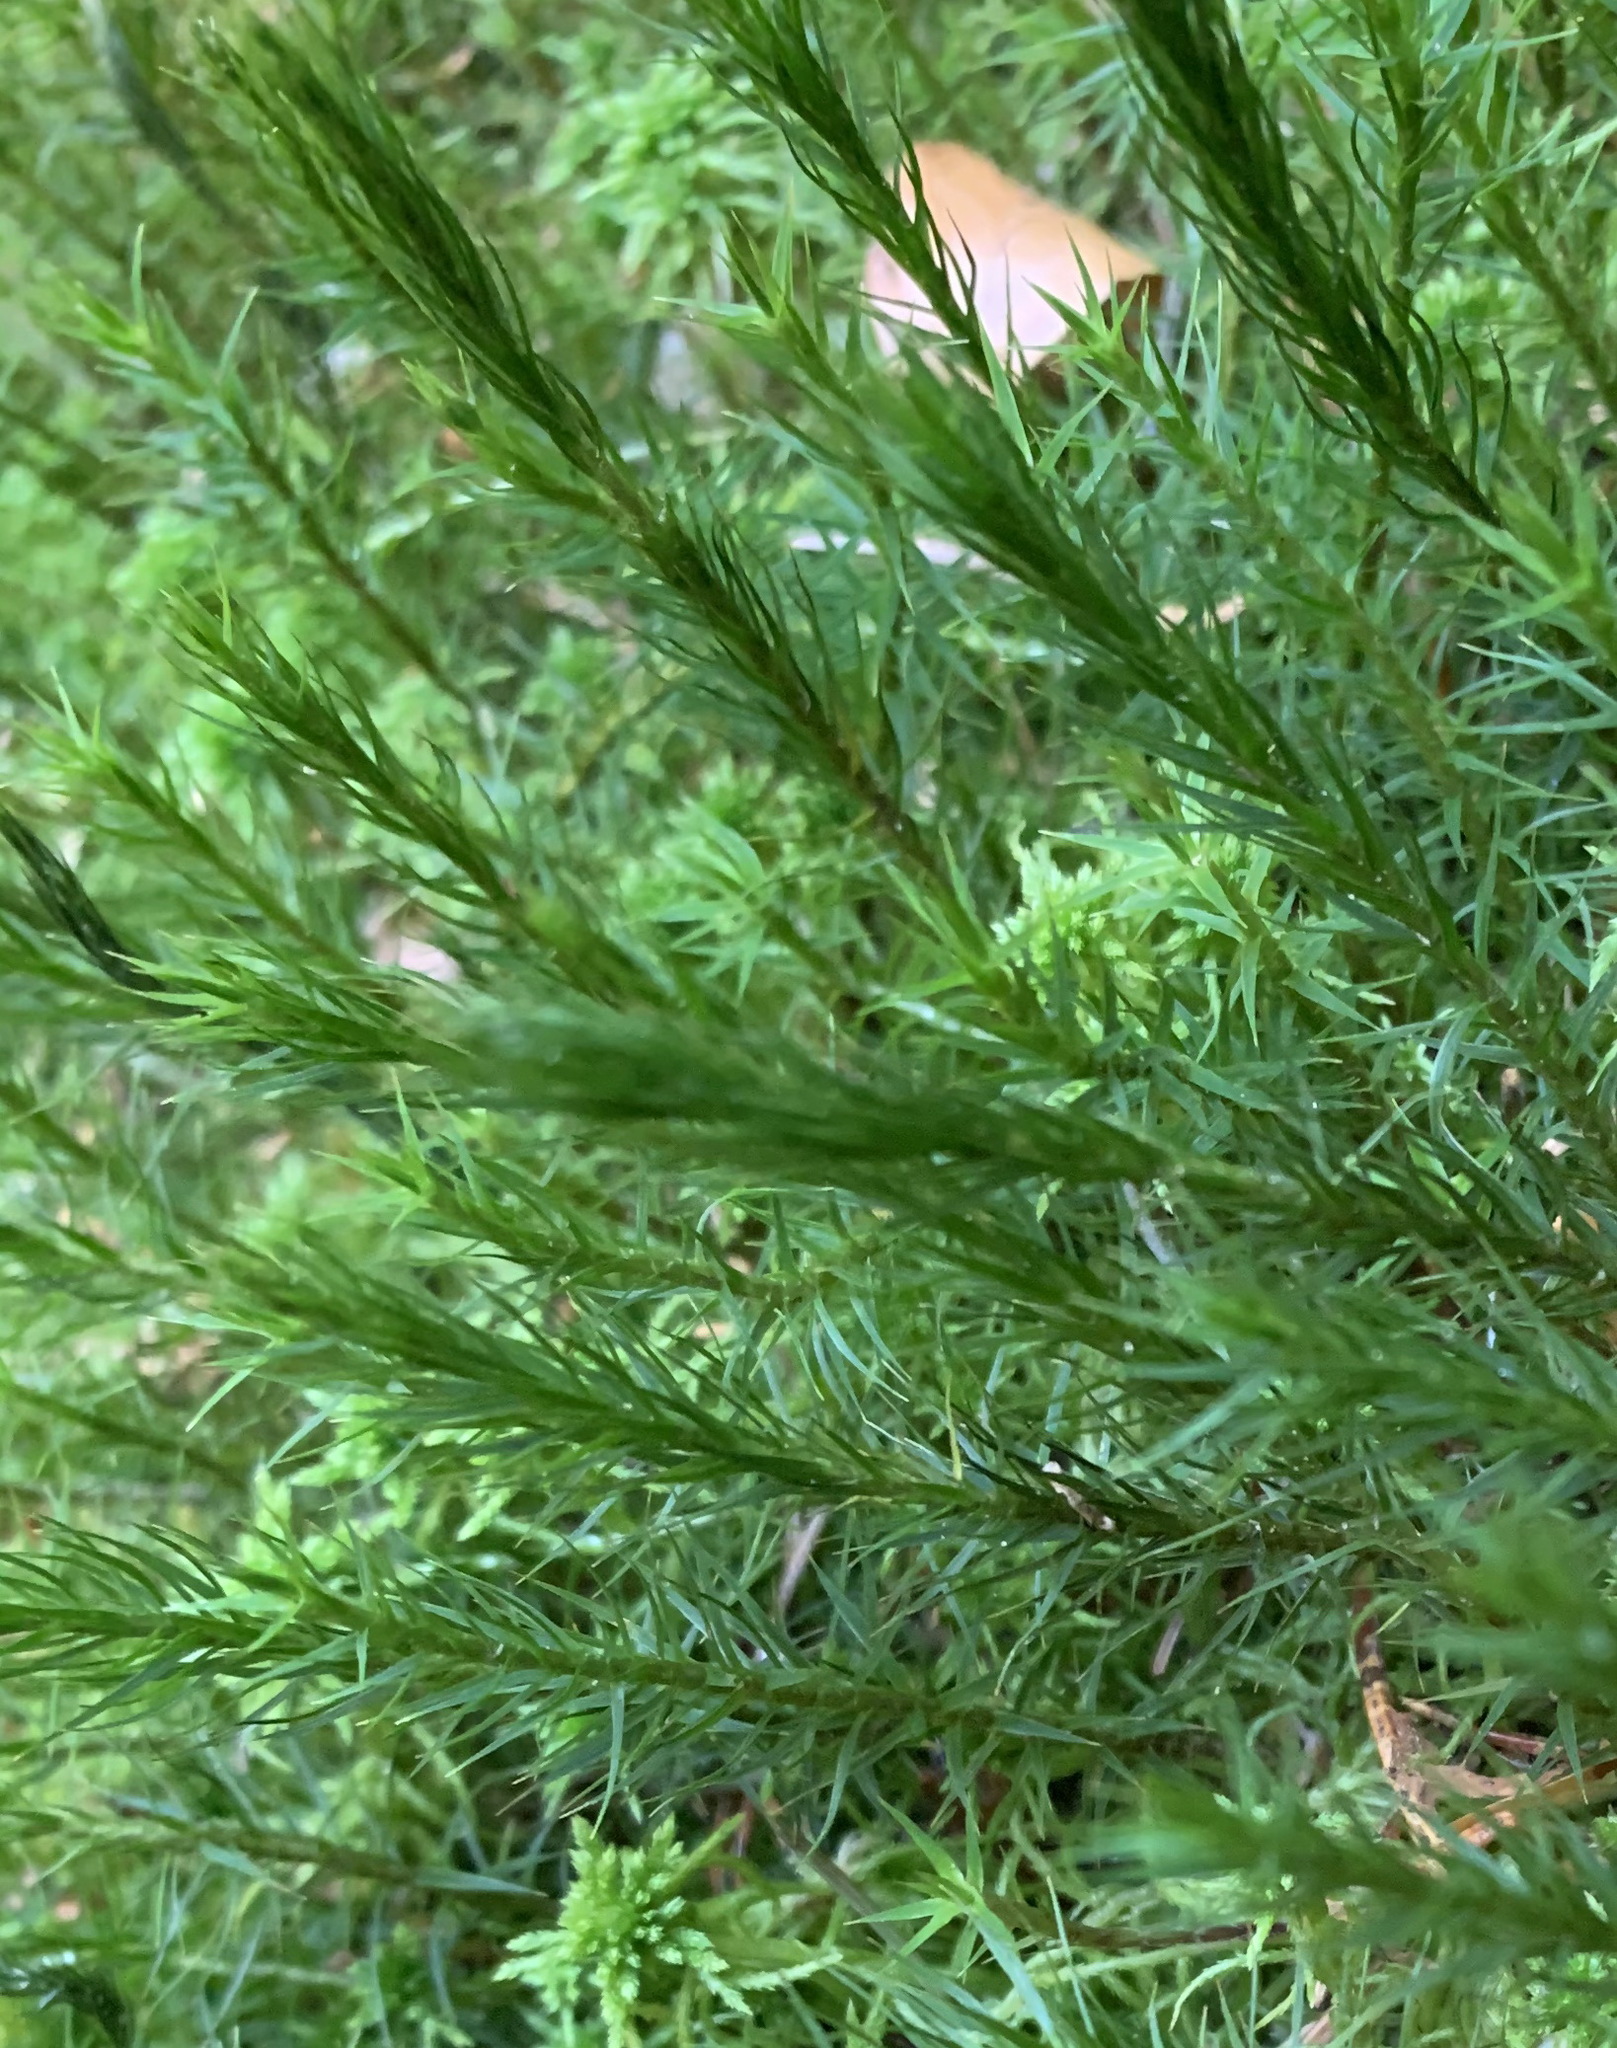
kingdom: Plantae
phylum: Bryophyta
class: Polytrichopsida
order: Polytrichales
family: Polytrichaceae
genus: Polytrichum
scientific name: Polytrichum commune
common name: Common haircap
